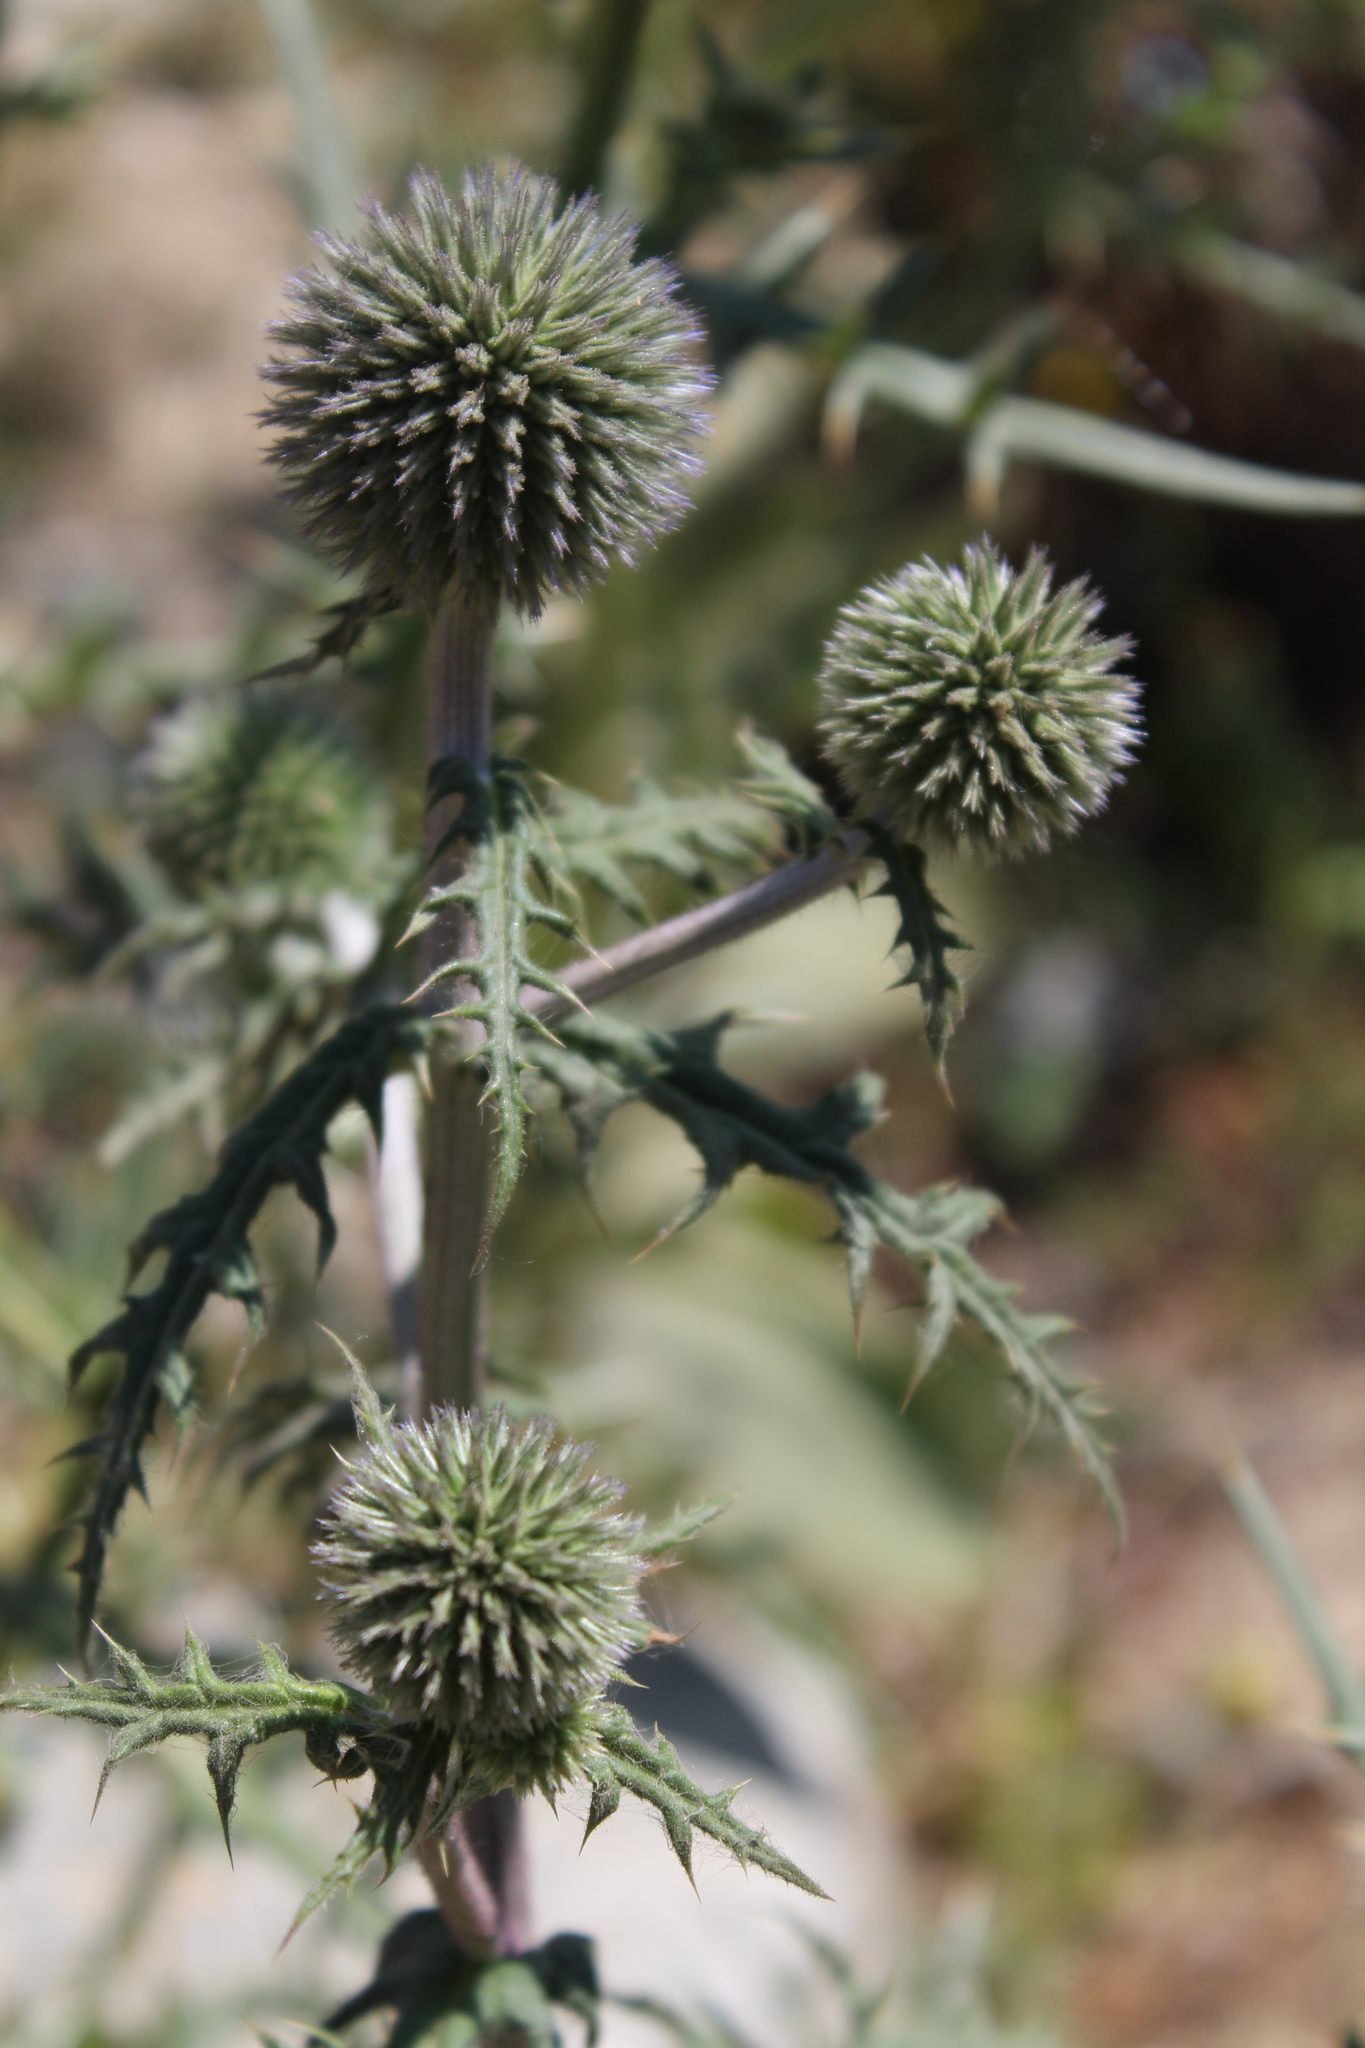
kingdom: Plantae
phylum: Tracheophyta
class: Magnoliopsida
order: Asterales
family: Asteraceae
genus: Echinops
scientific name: Echinops sphaerocephalus
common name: Glandular globe-thistle
